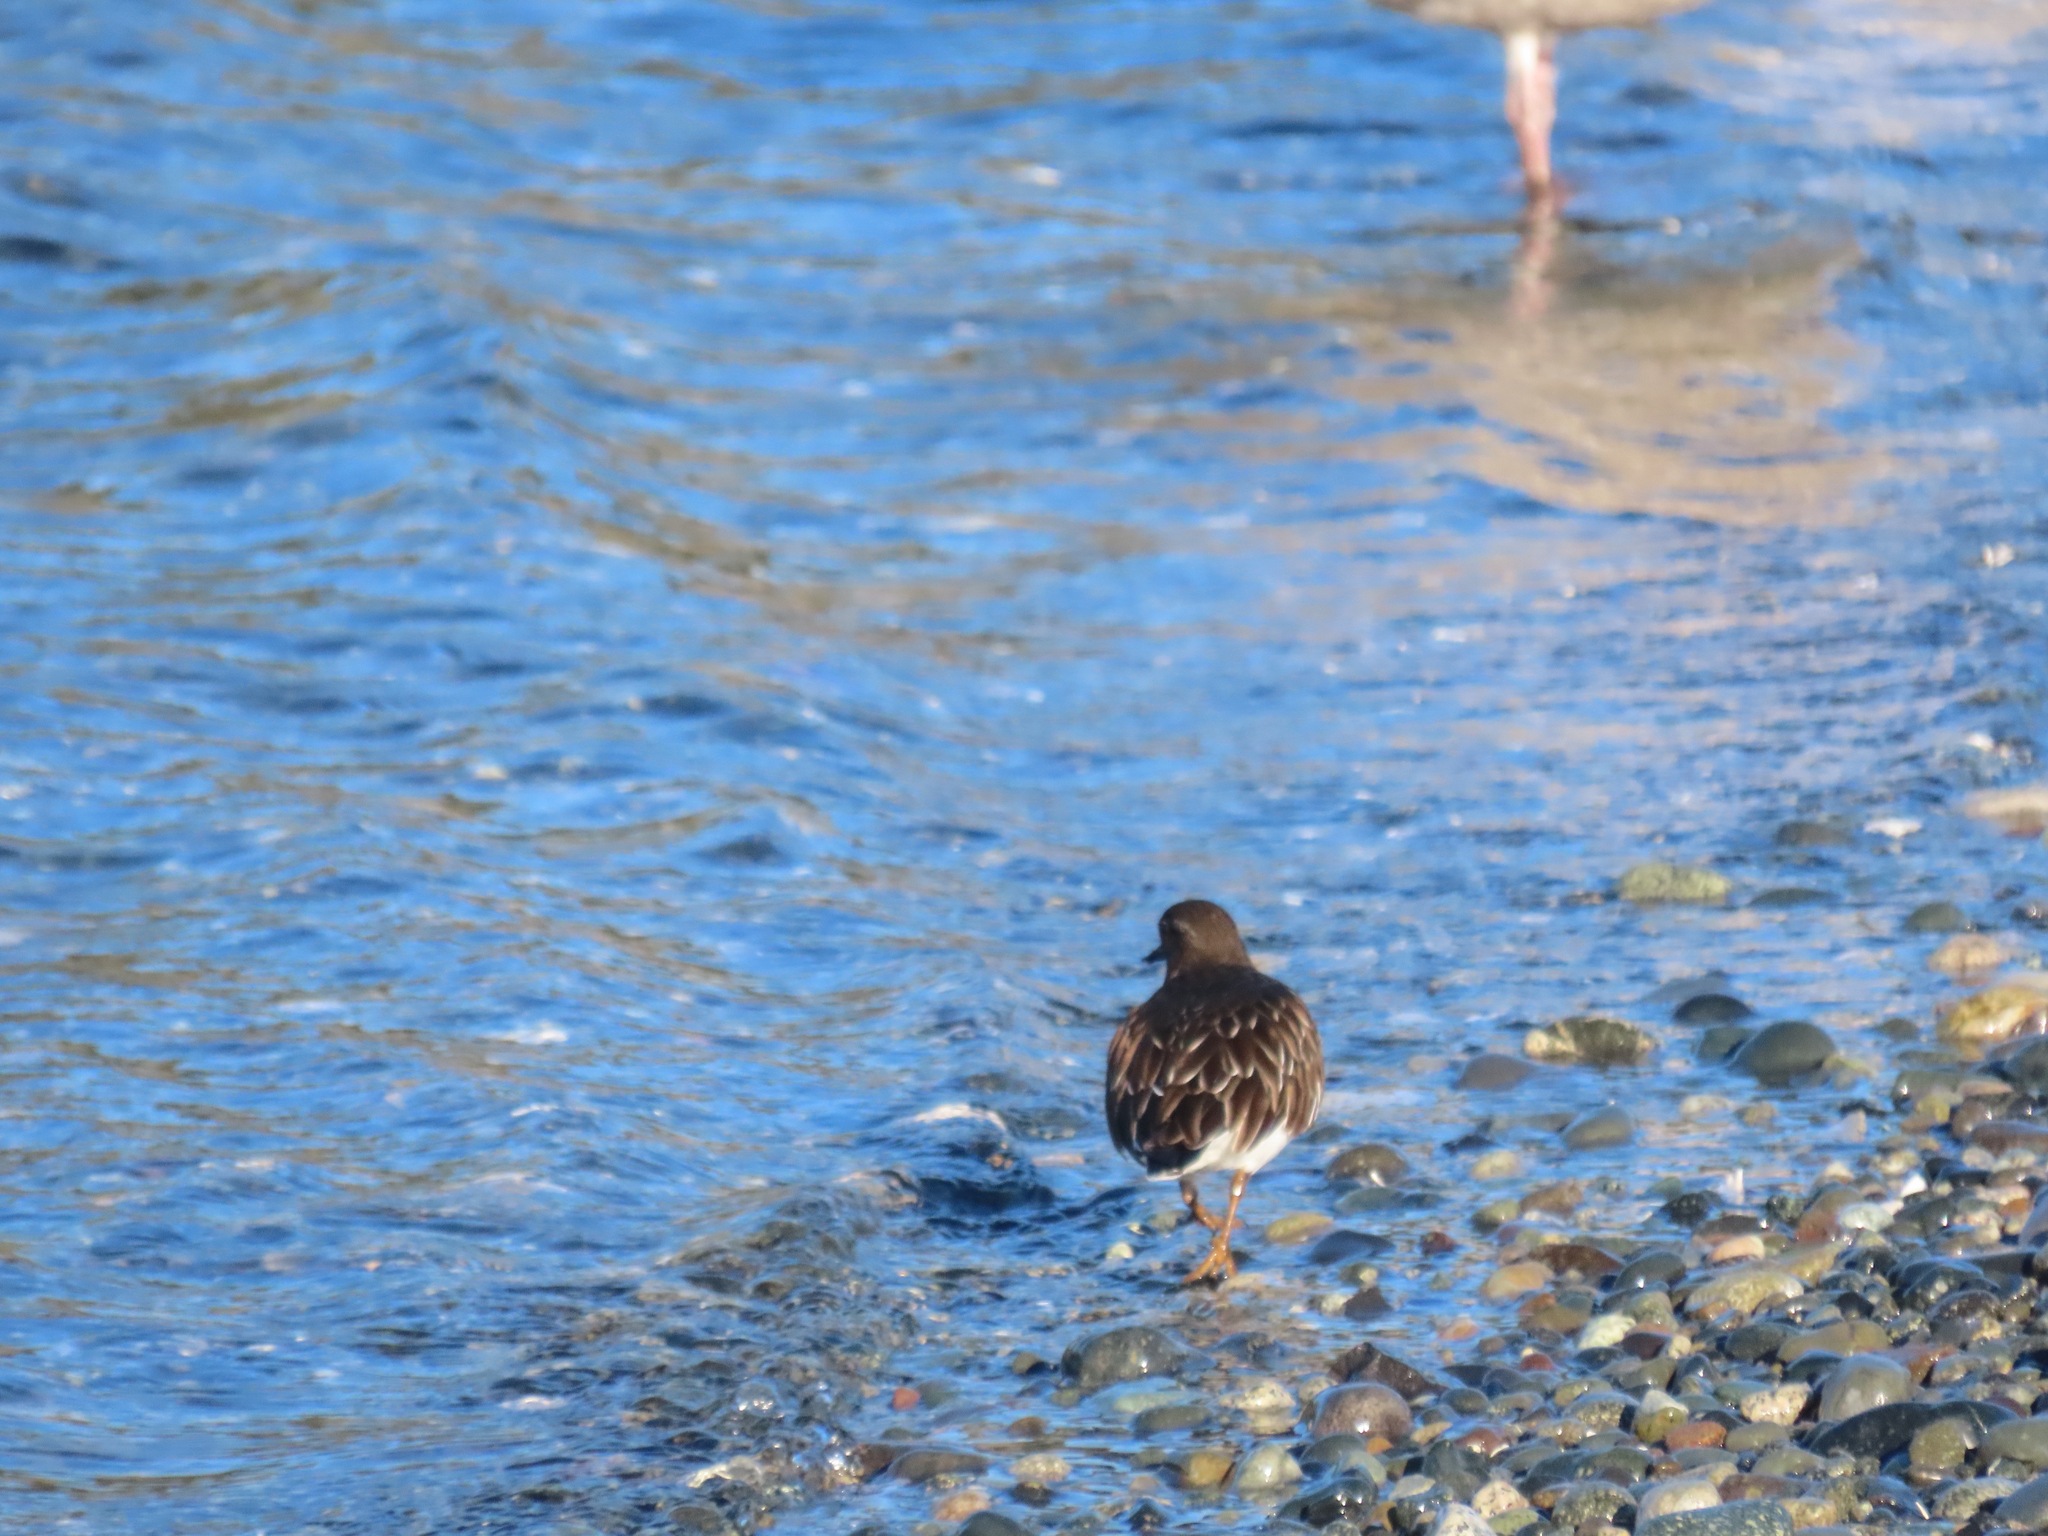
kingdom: Animalia
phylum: Chordata
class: Aves
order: Charadriiformes
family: Scolopacidae
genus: Arenaria
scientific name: Arenaria melanocephala
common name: Black turnstone
